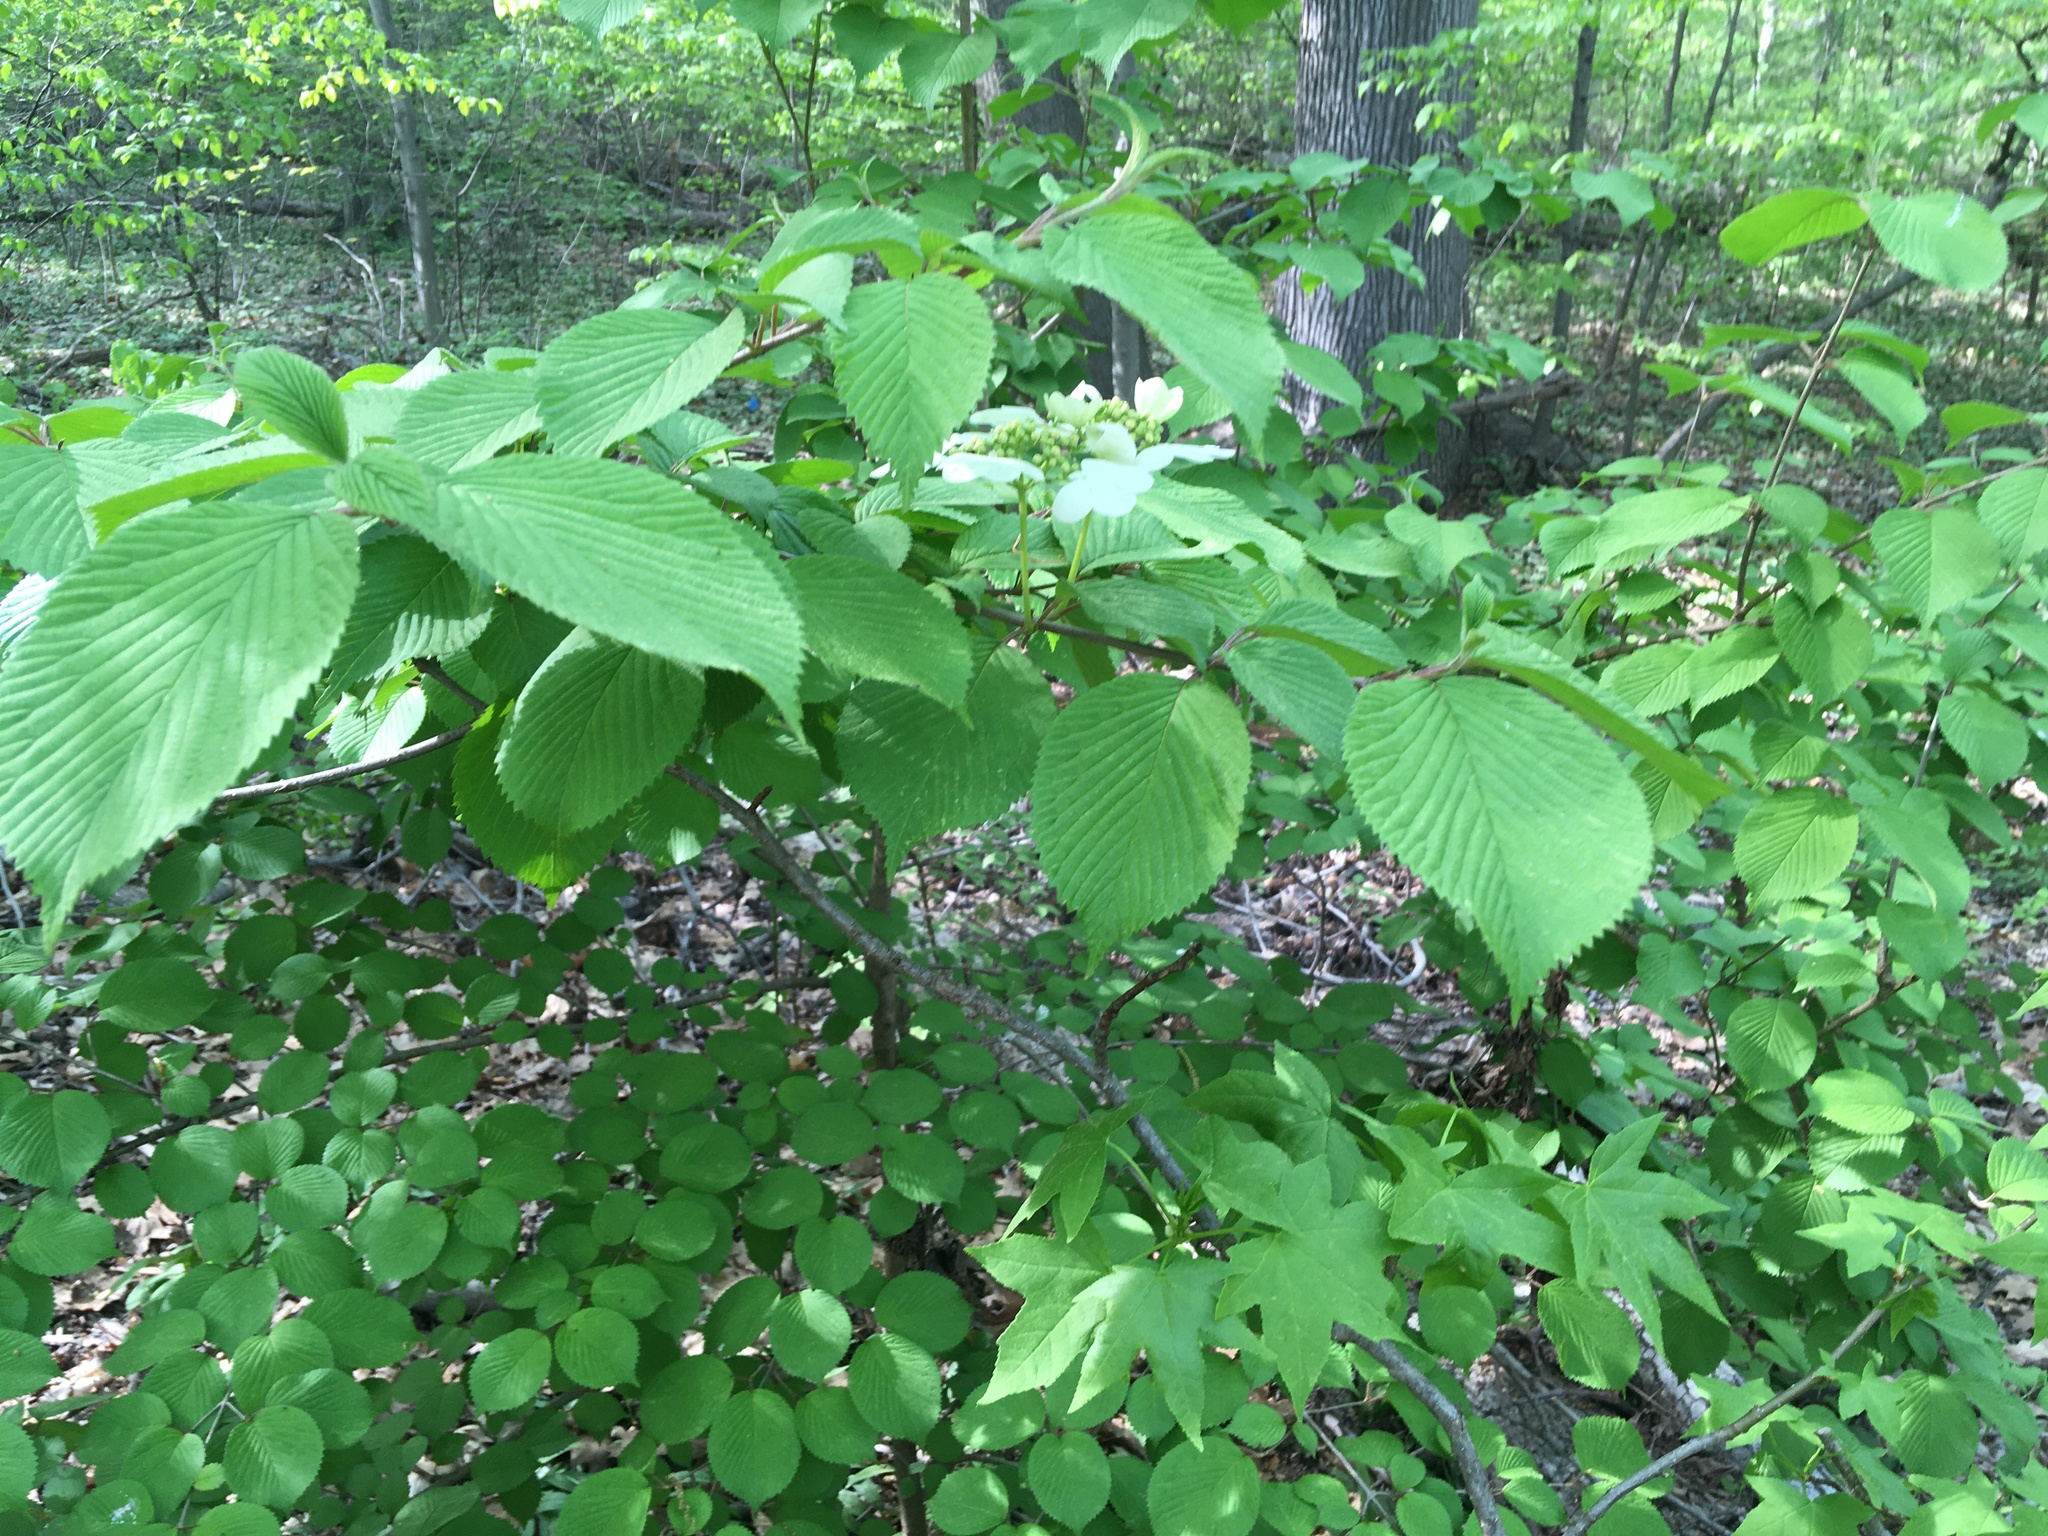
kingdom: Plantae
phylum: Tracheophyta
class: Magnoliopsida
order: Dipsacales
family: Viburnaceae
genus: Viburnum
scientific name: Viburnum plicatum
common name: Japanese snowball
